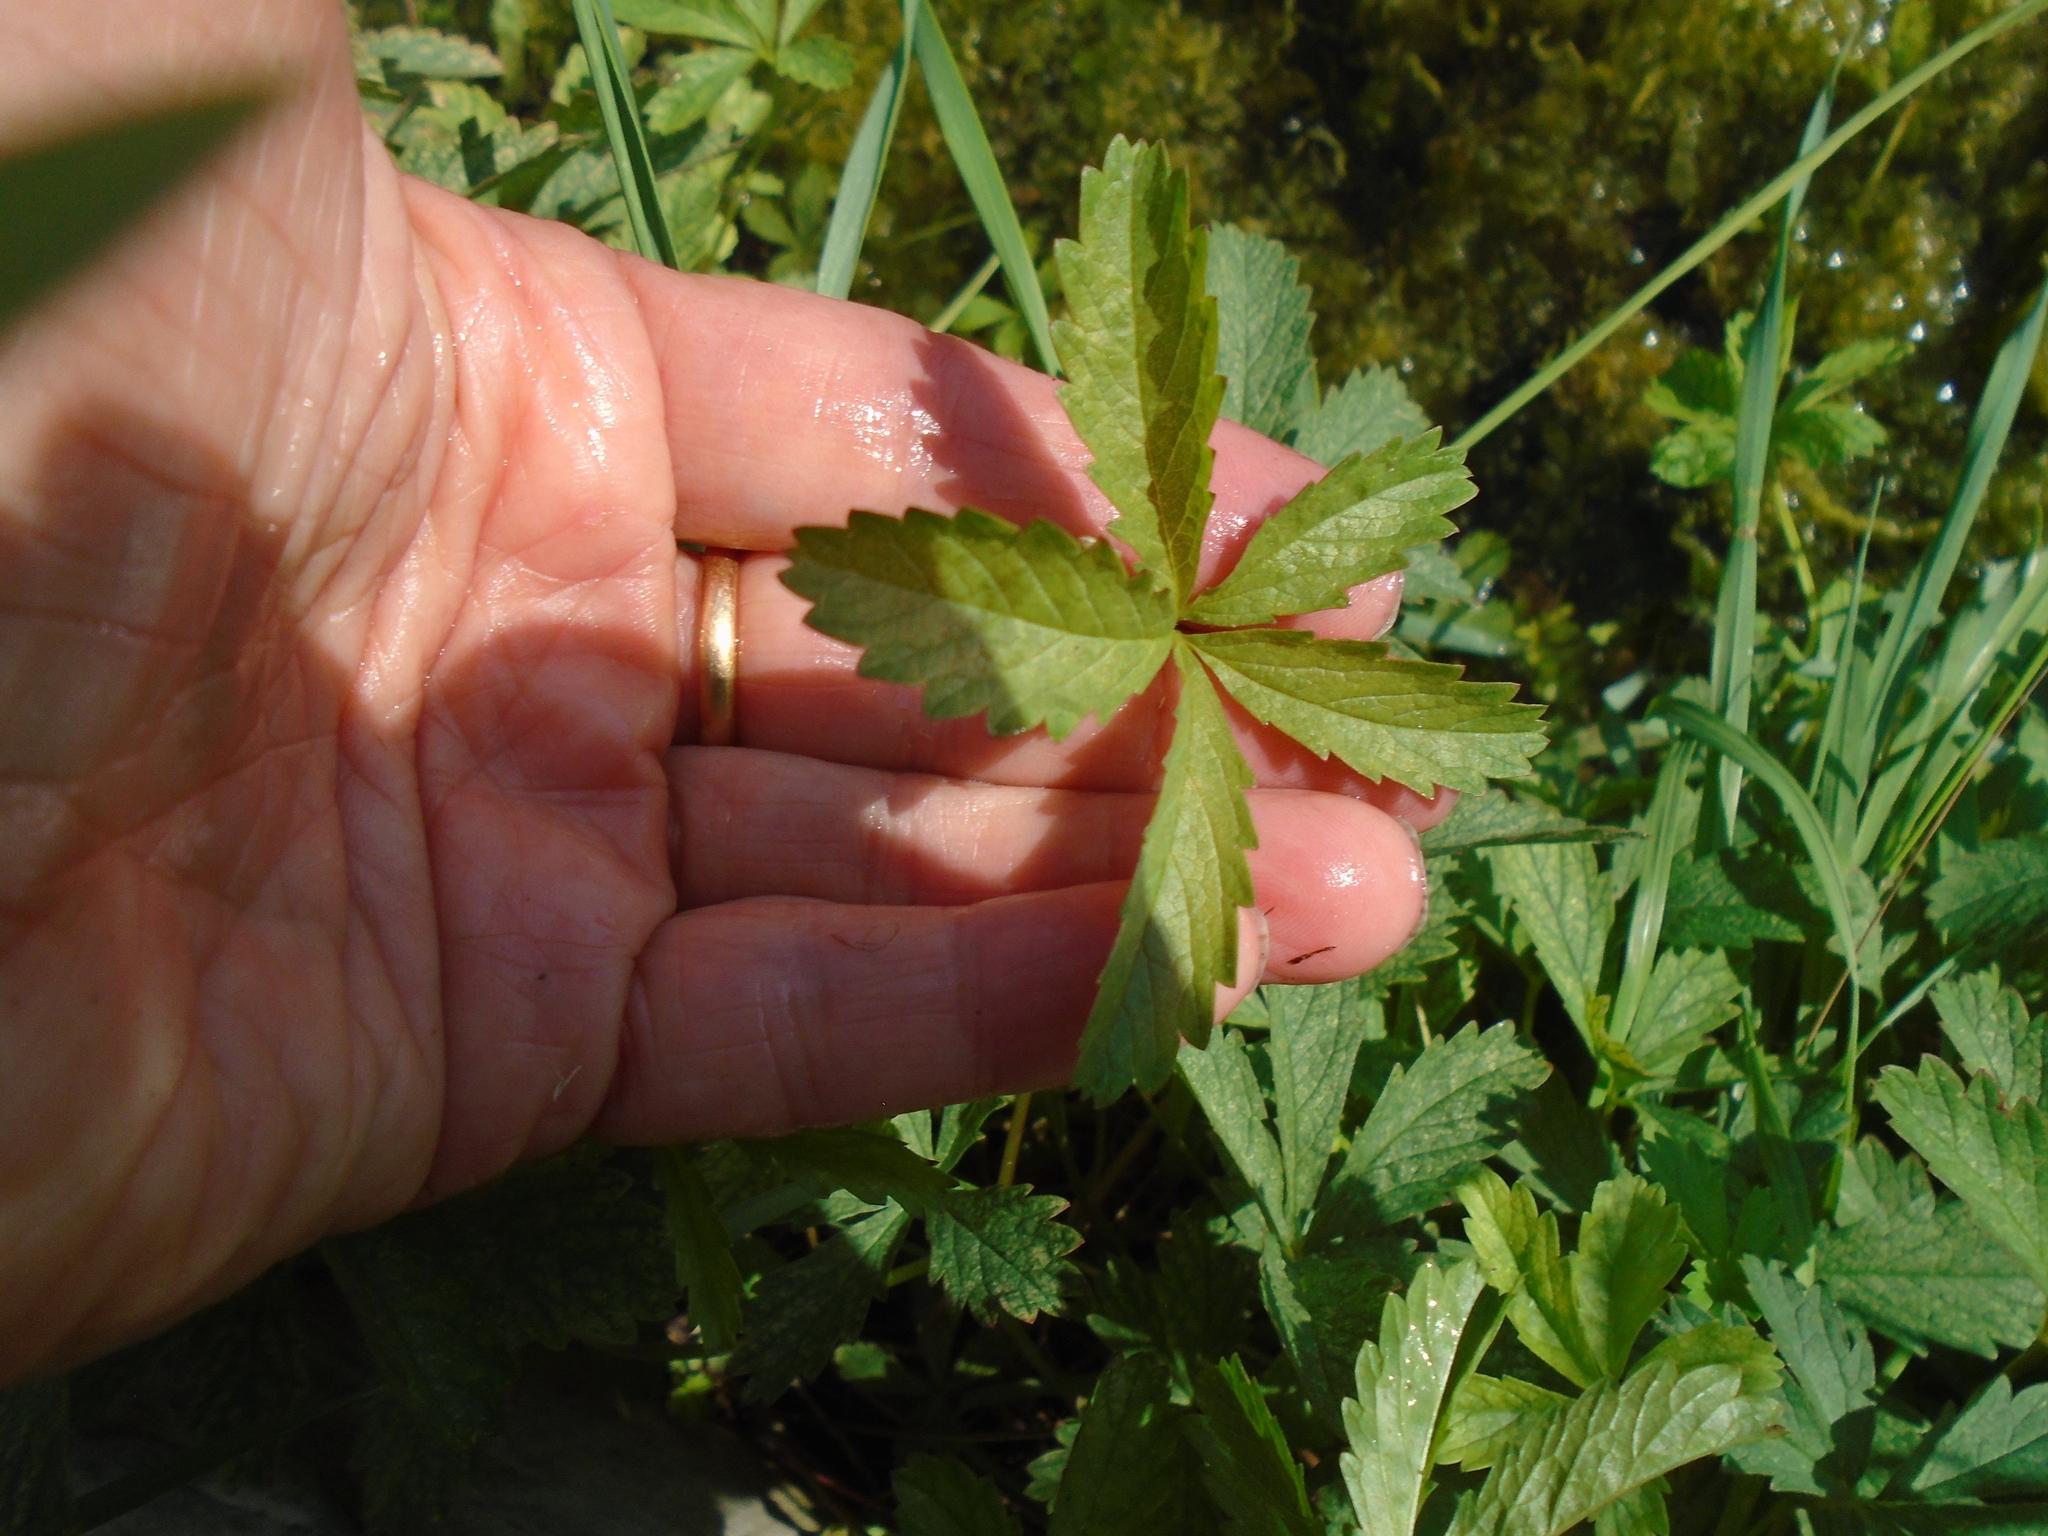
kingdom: Plantae
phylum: Tracheophyta
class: Magnoliopsida
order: Rosales
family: Rosaceae
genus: Potentilla
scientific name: Potentilla reptans
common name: Creeping cinquefoil
